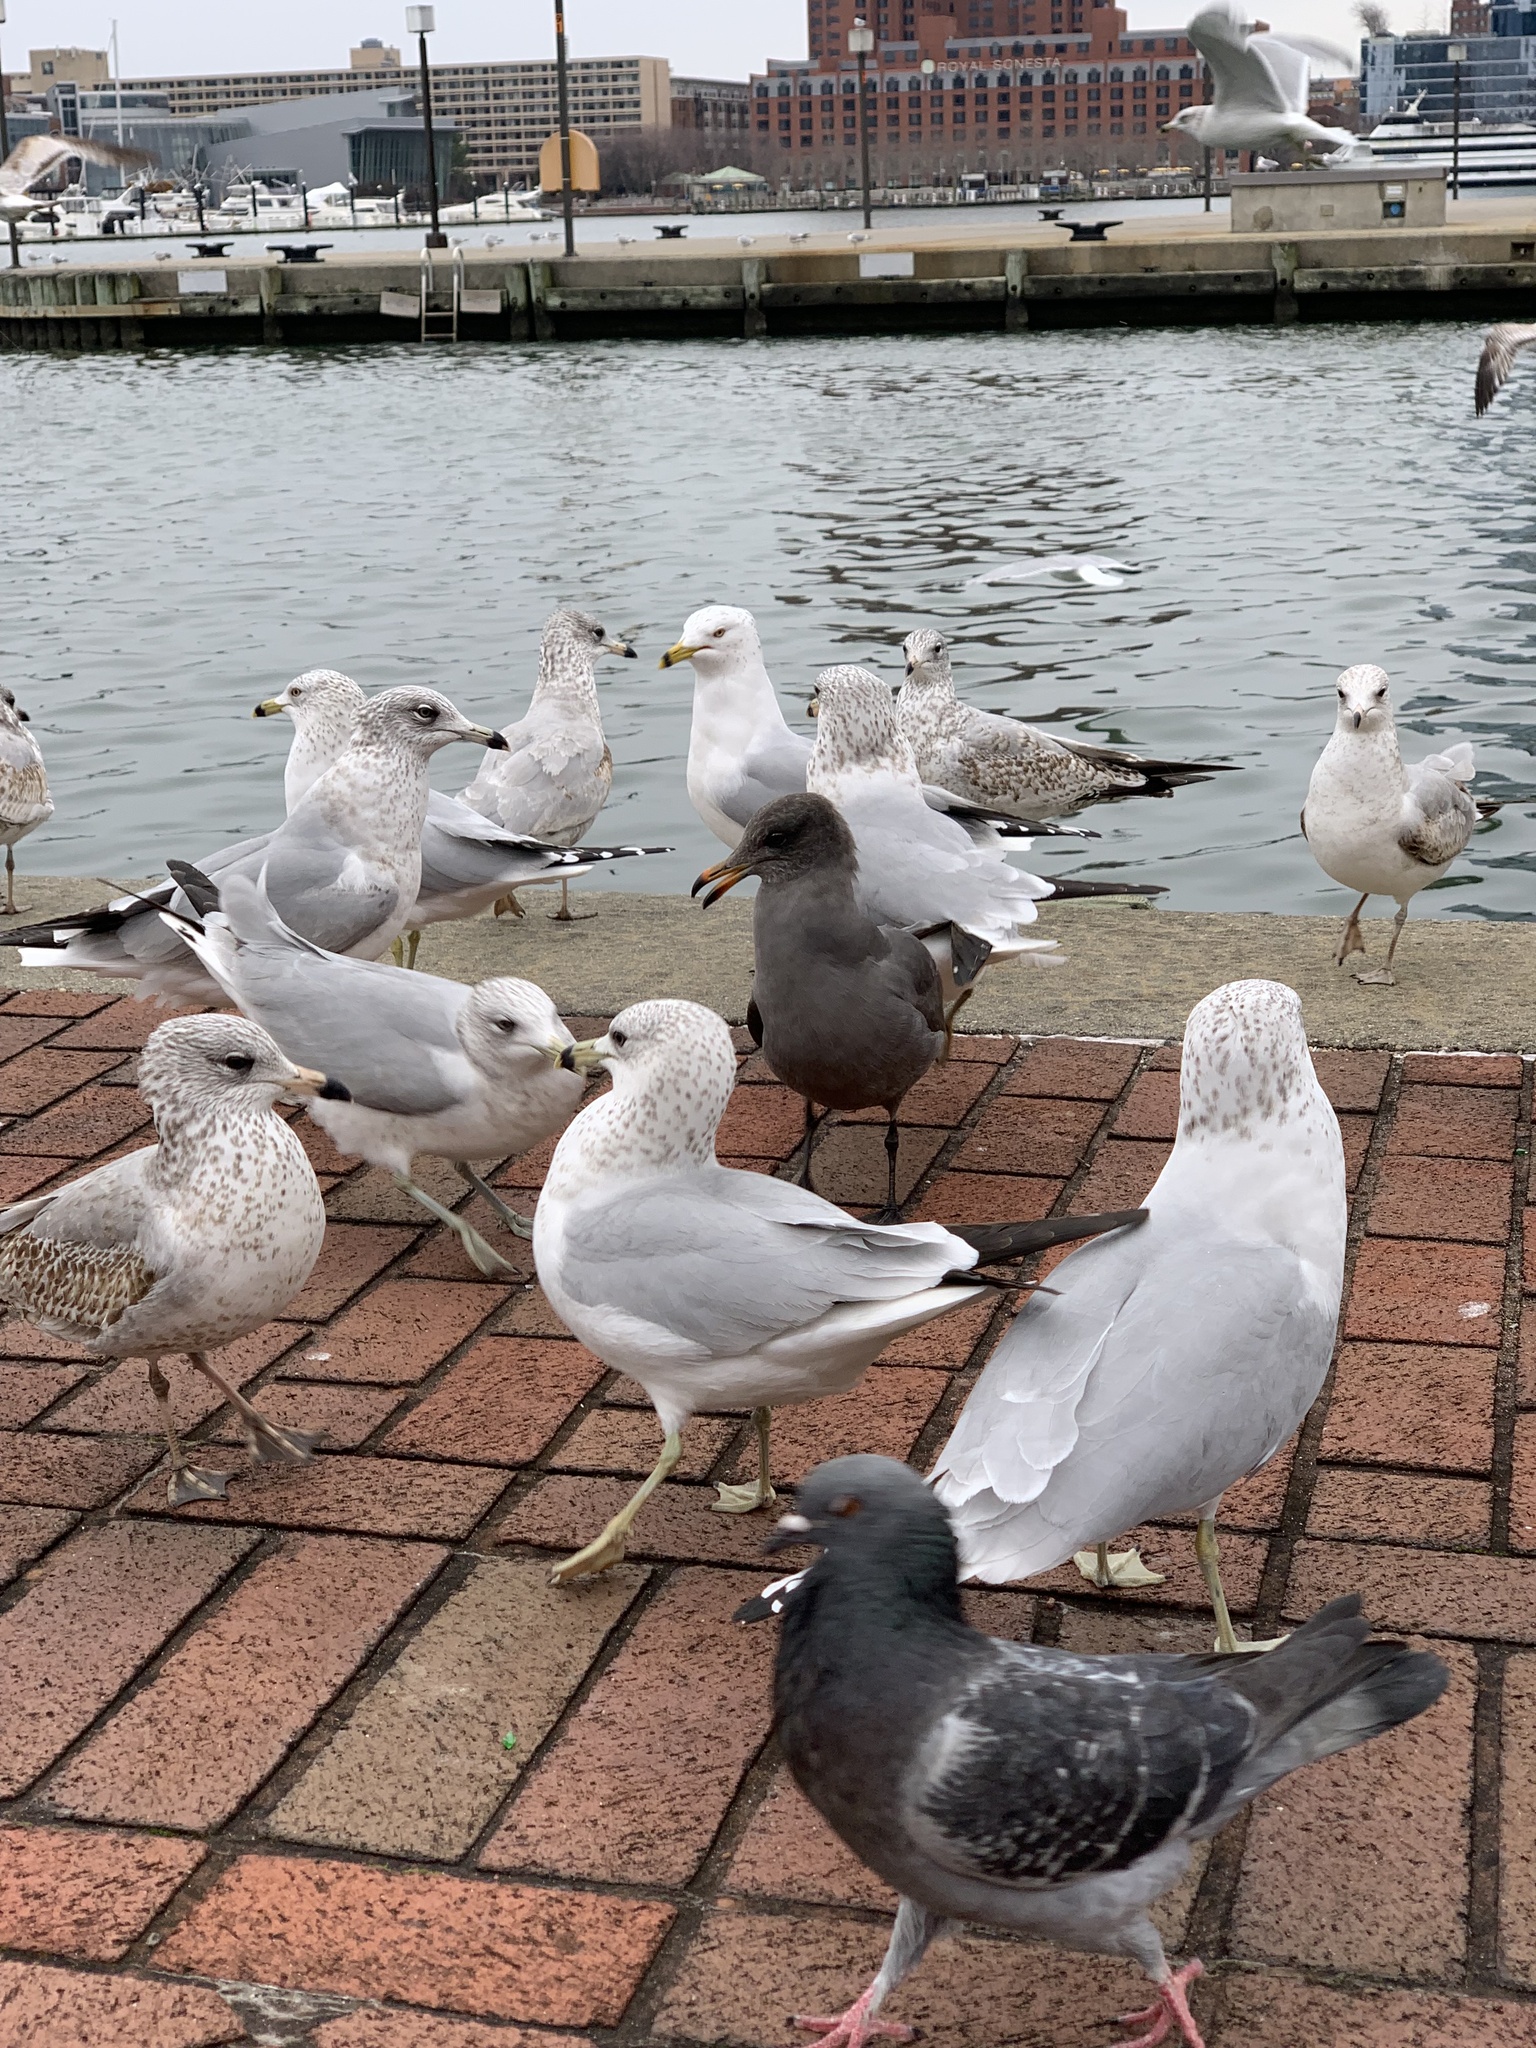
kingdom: Animalia
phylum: Chordata
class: Aves
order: Columbiformes
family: Columbidae
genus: Columba
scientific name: Columba livia
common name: Rock pigeon
